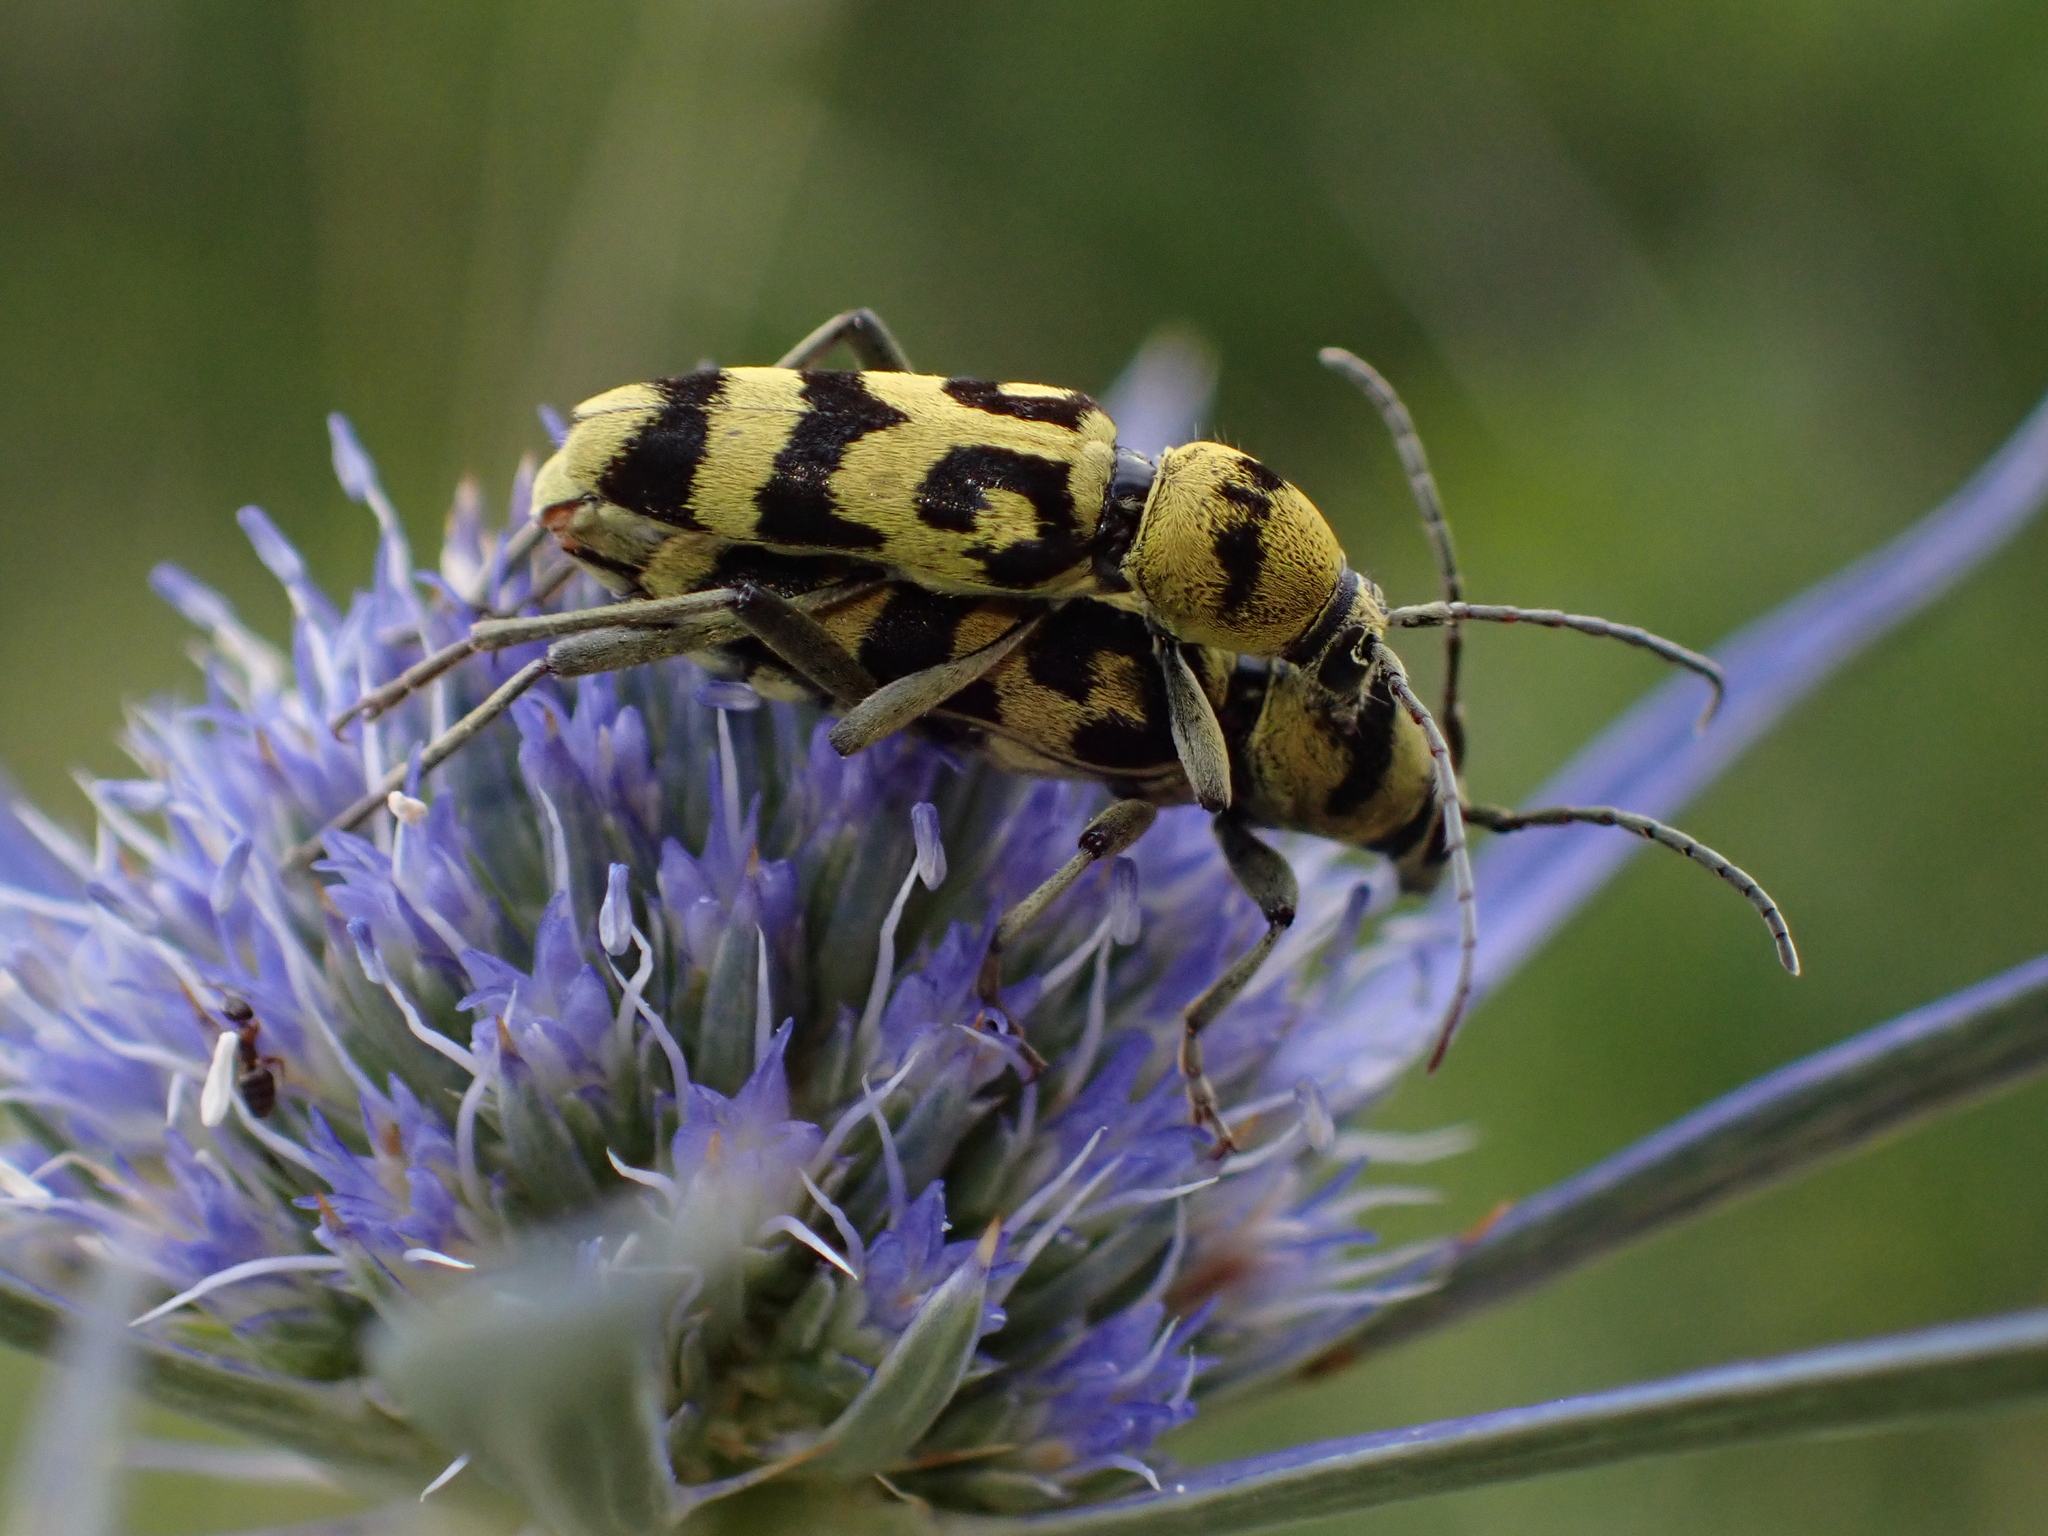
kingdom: Animalia
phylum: Arthropoda
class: Insecta
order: Coleoptera
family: Cerambycidae
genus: Chlorophorus
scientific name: Chlorophorus varius
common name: Grape wood borer
